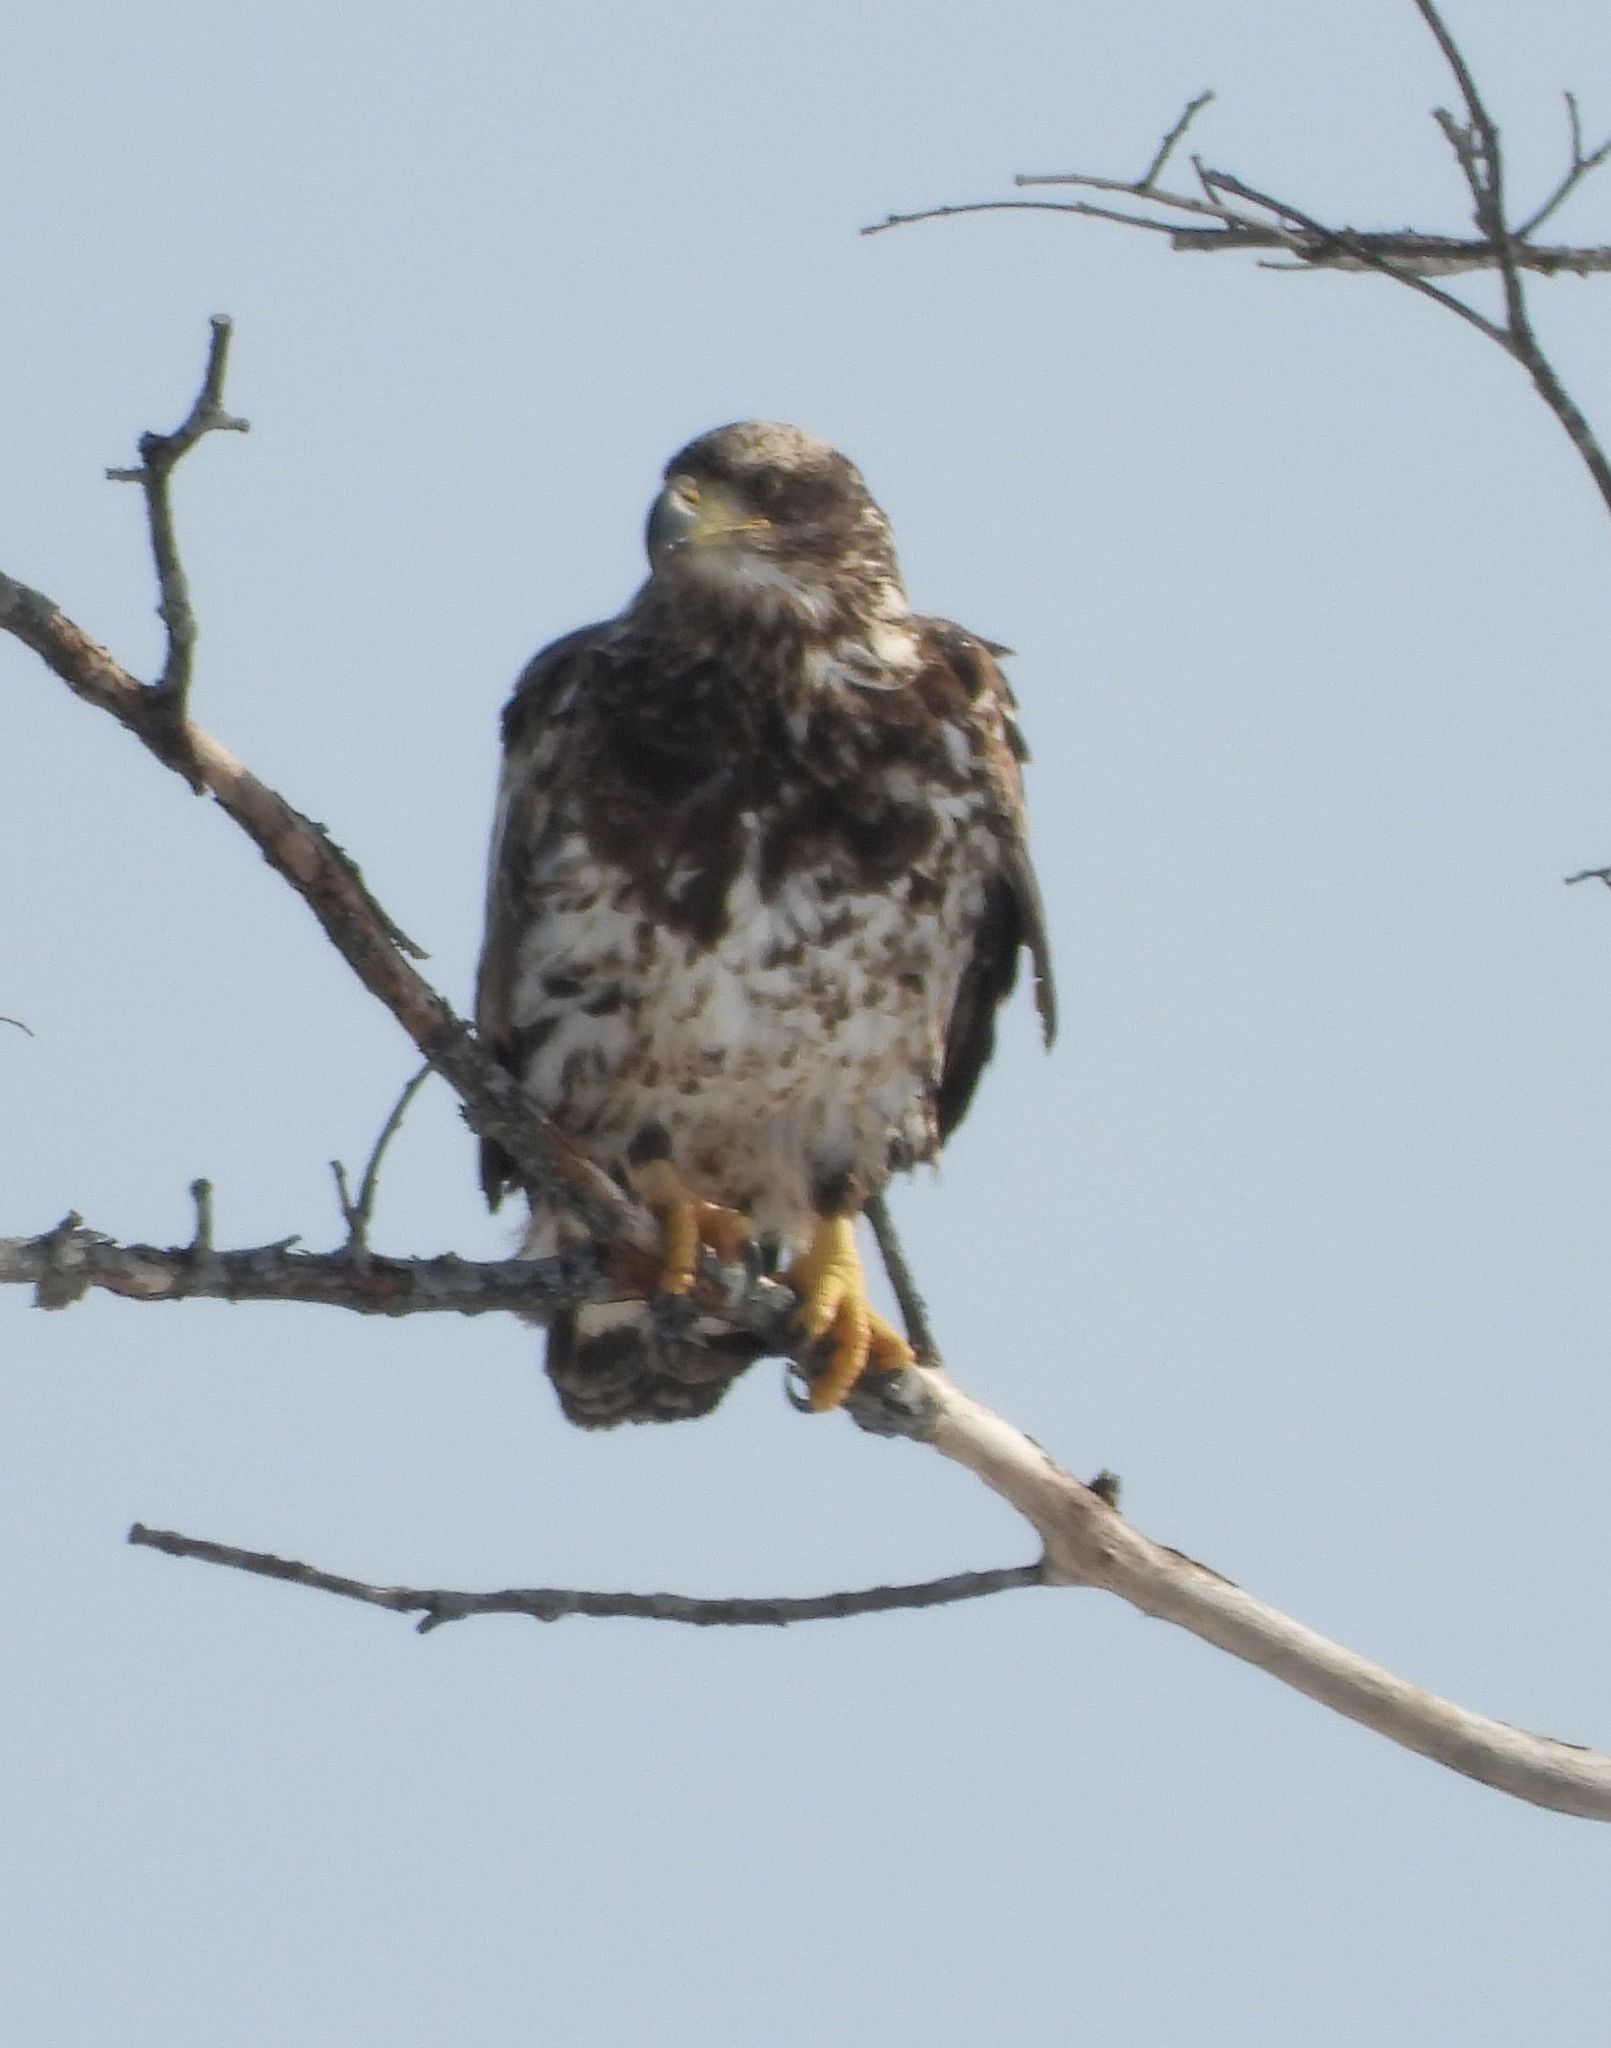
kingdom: Animalia
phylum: Chordata
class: Aves
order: Accipitriformes
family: Accipitridae
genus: Haliaeetus
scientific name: Haliaeetus leucocephalus
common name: Bald eagle
